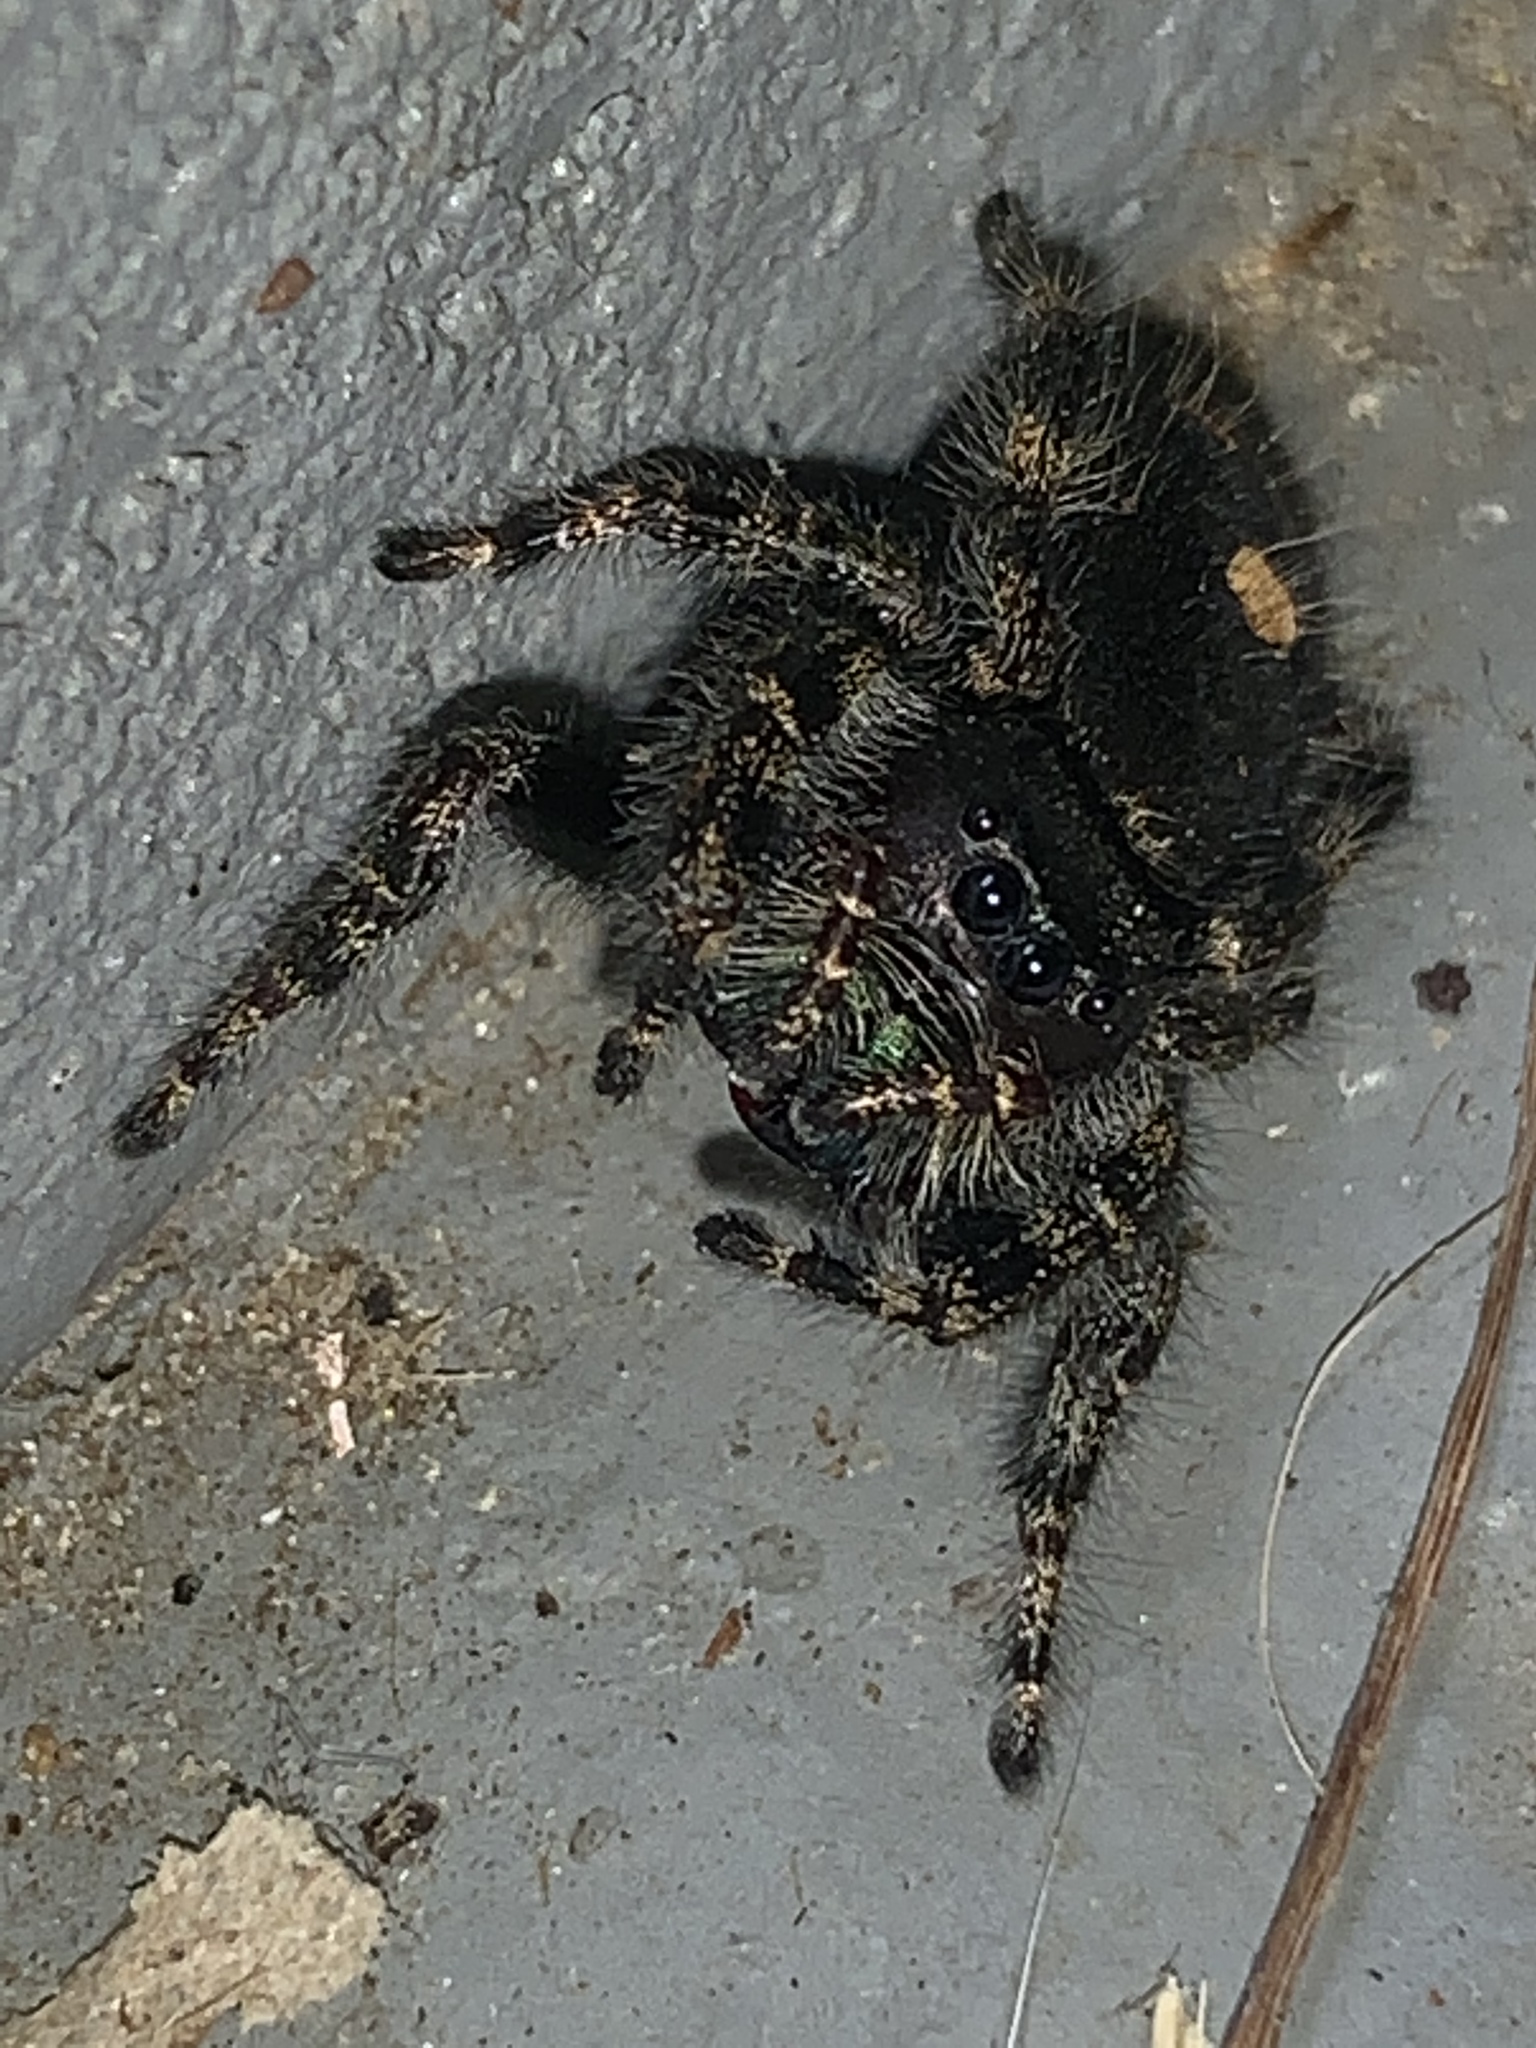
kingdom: Animalia
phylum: Arthropoda
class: Arachnida
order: Araneae
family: Salticidae
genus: Phidippus
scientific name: Phidippus audax
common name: Bold jumper
